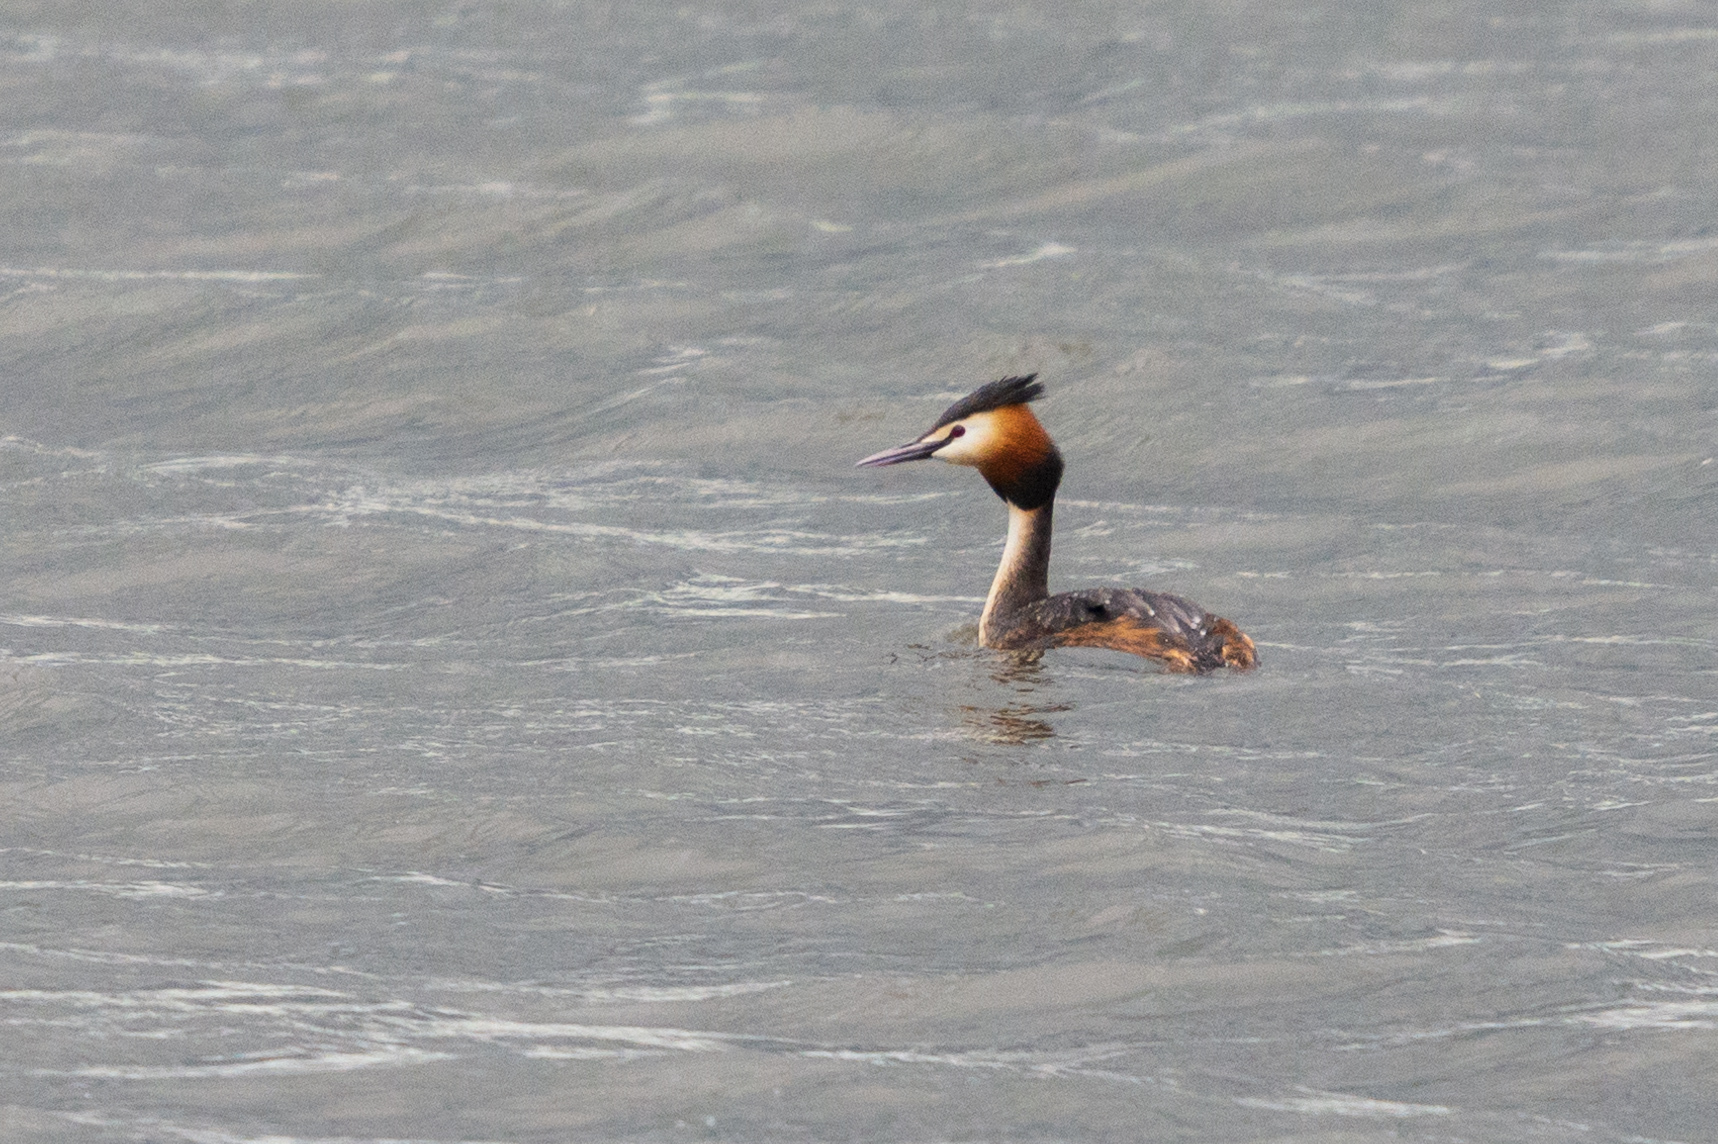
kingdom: Animalia
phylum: Chordata
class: Aves
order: Podicipediformes
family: Podicipedidae
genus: Podiceps
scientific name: Podiceps cristatus
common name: Great crested grebe
